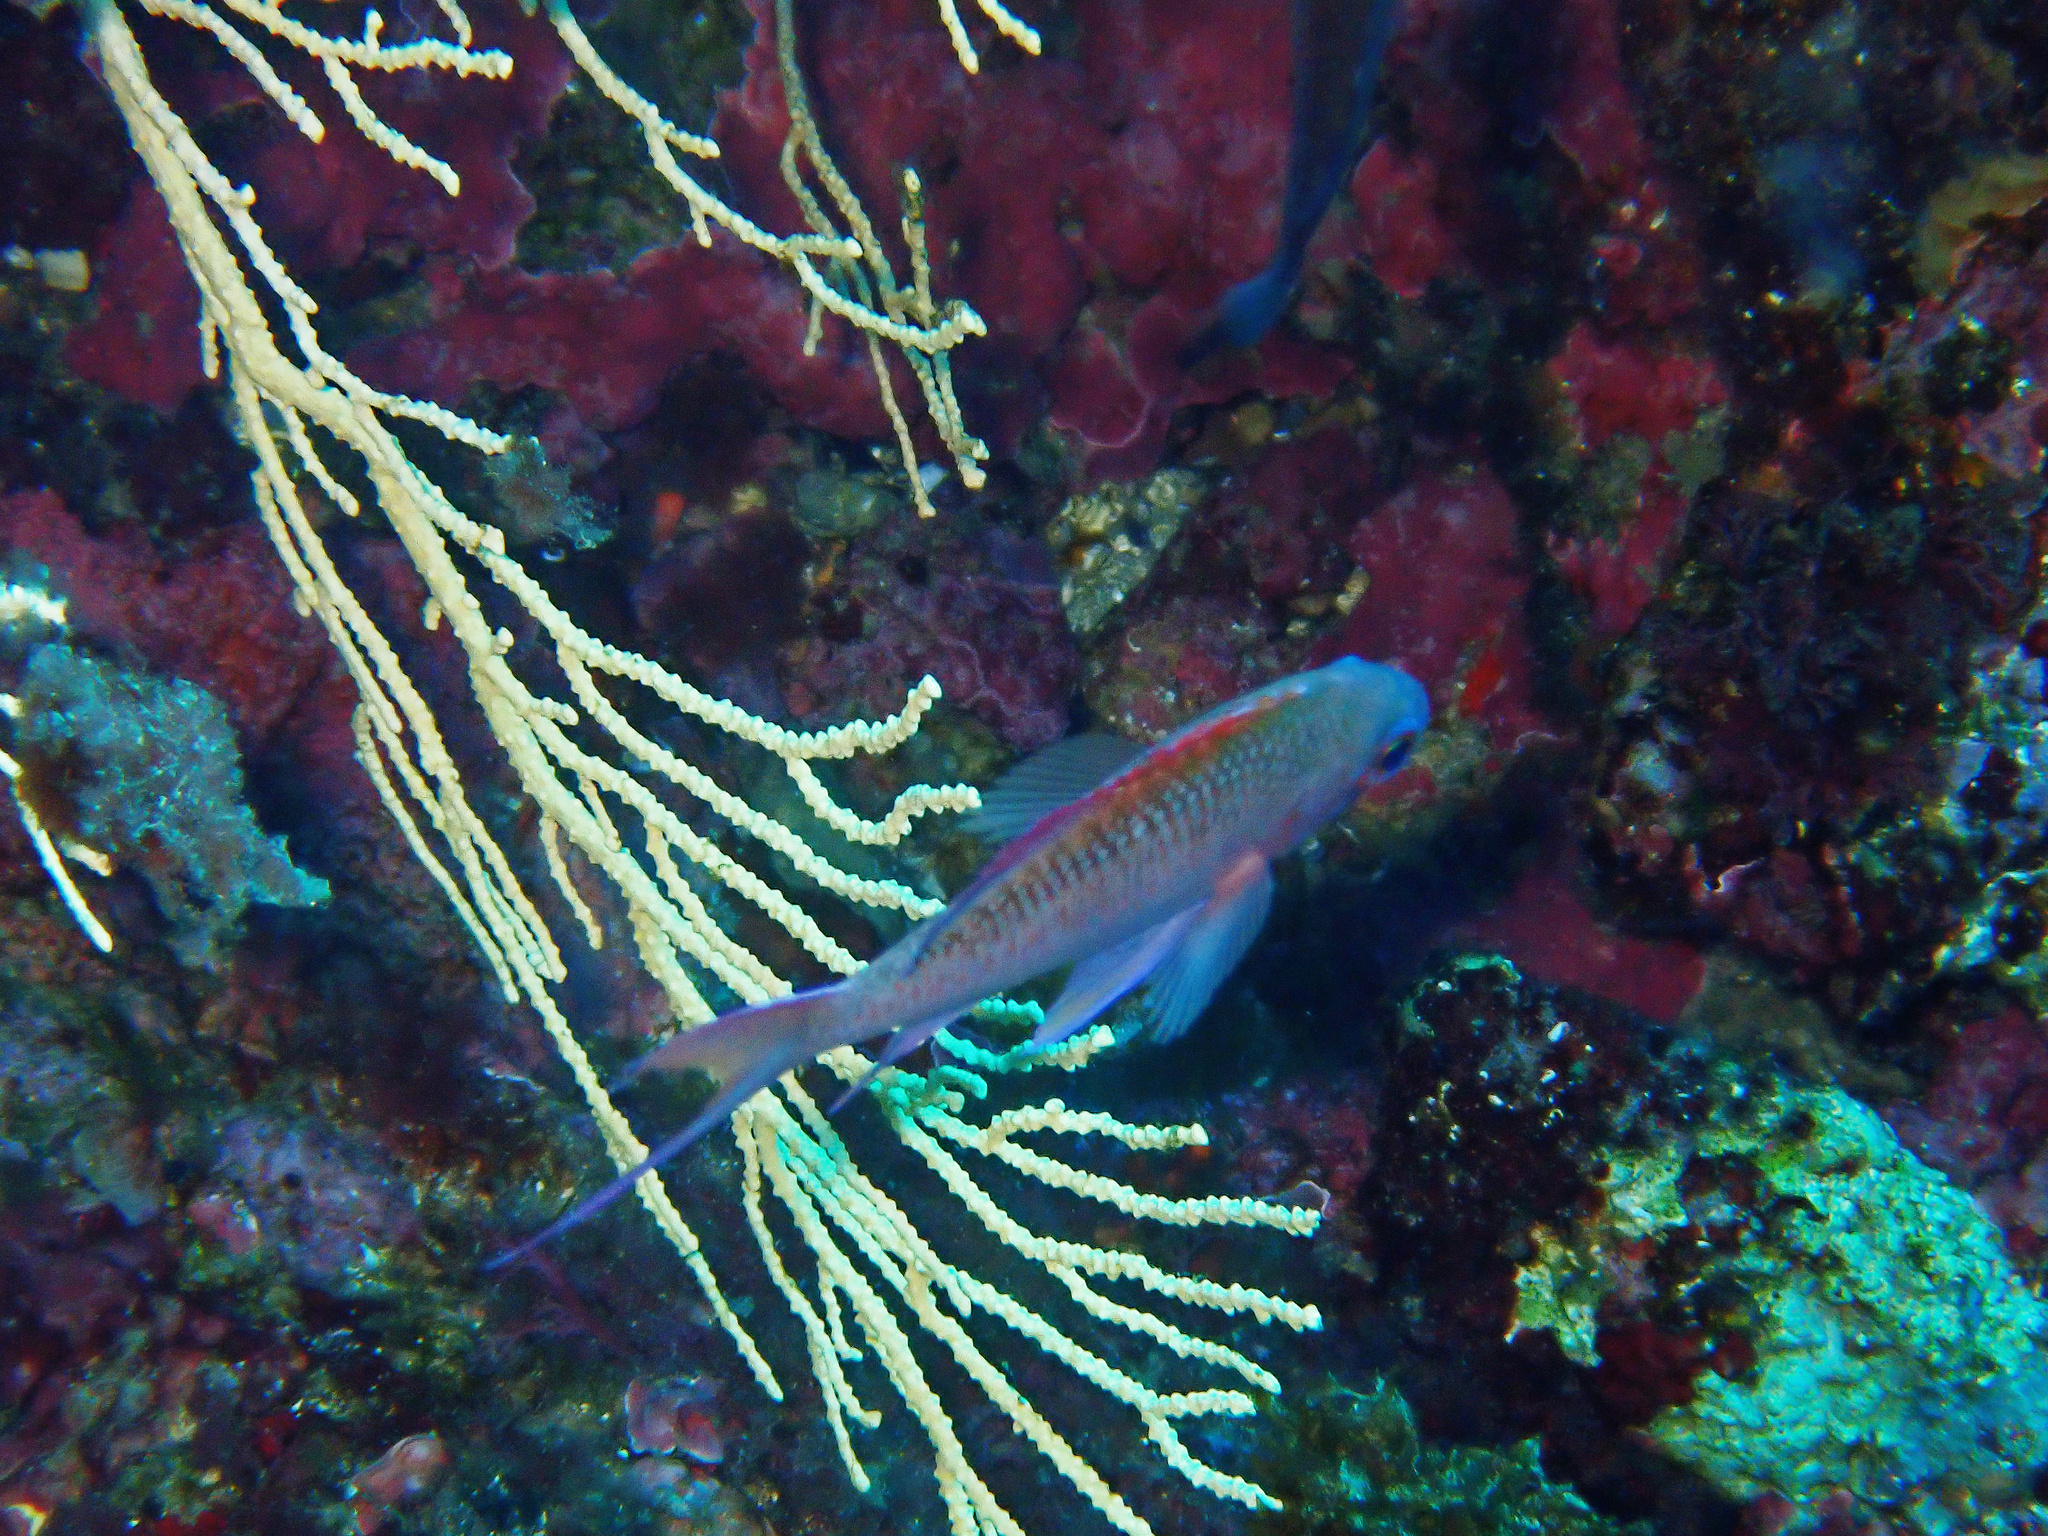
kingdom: Animalia
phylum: Chordata
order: Perciformes
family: Serranidae
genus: Anthias
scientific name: Anthias anthias
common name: Swallowtail seaperch
